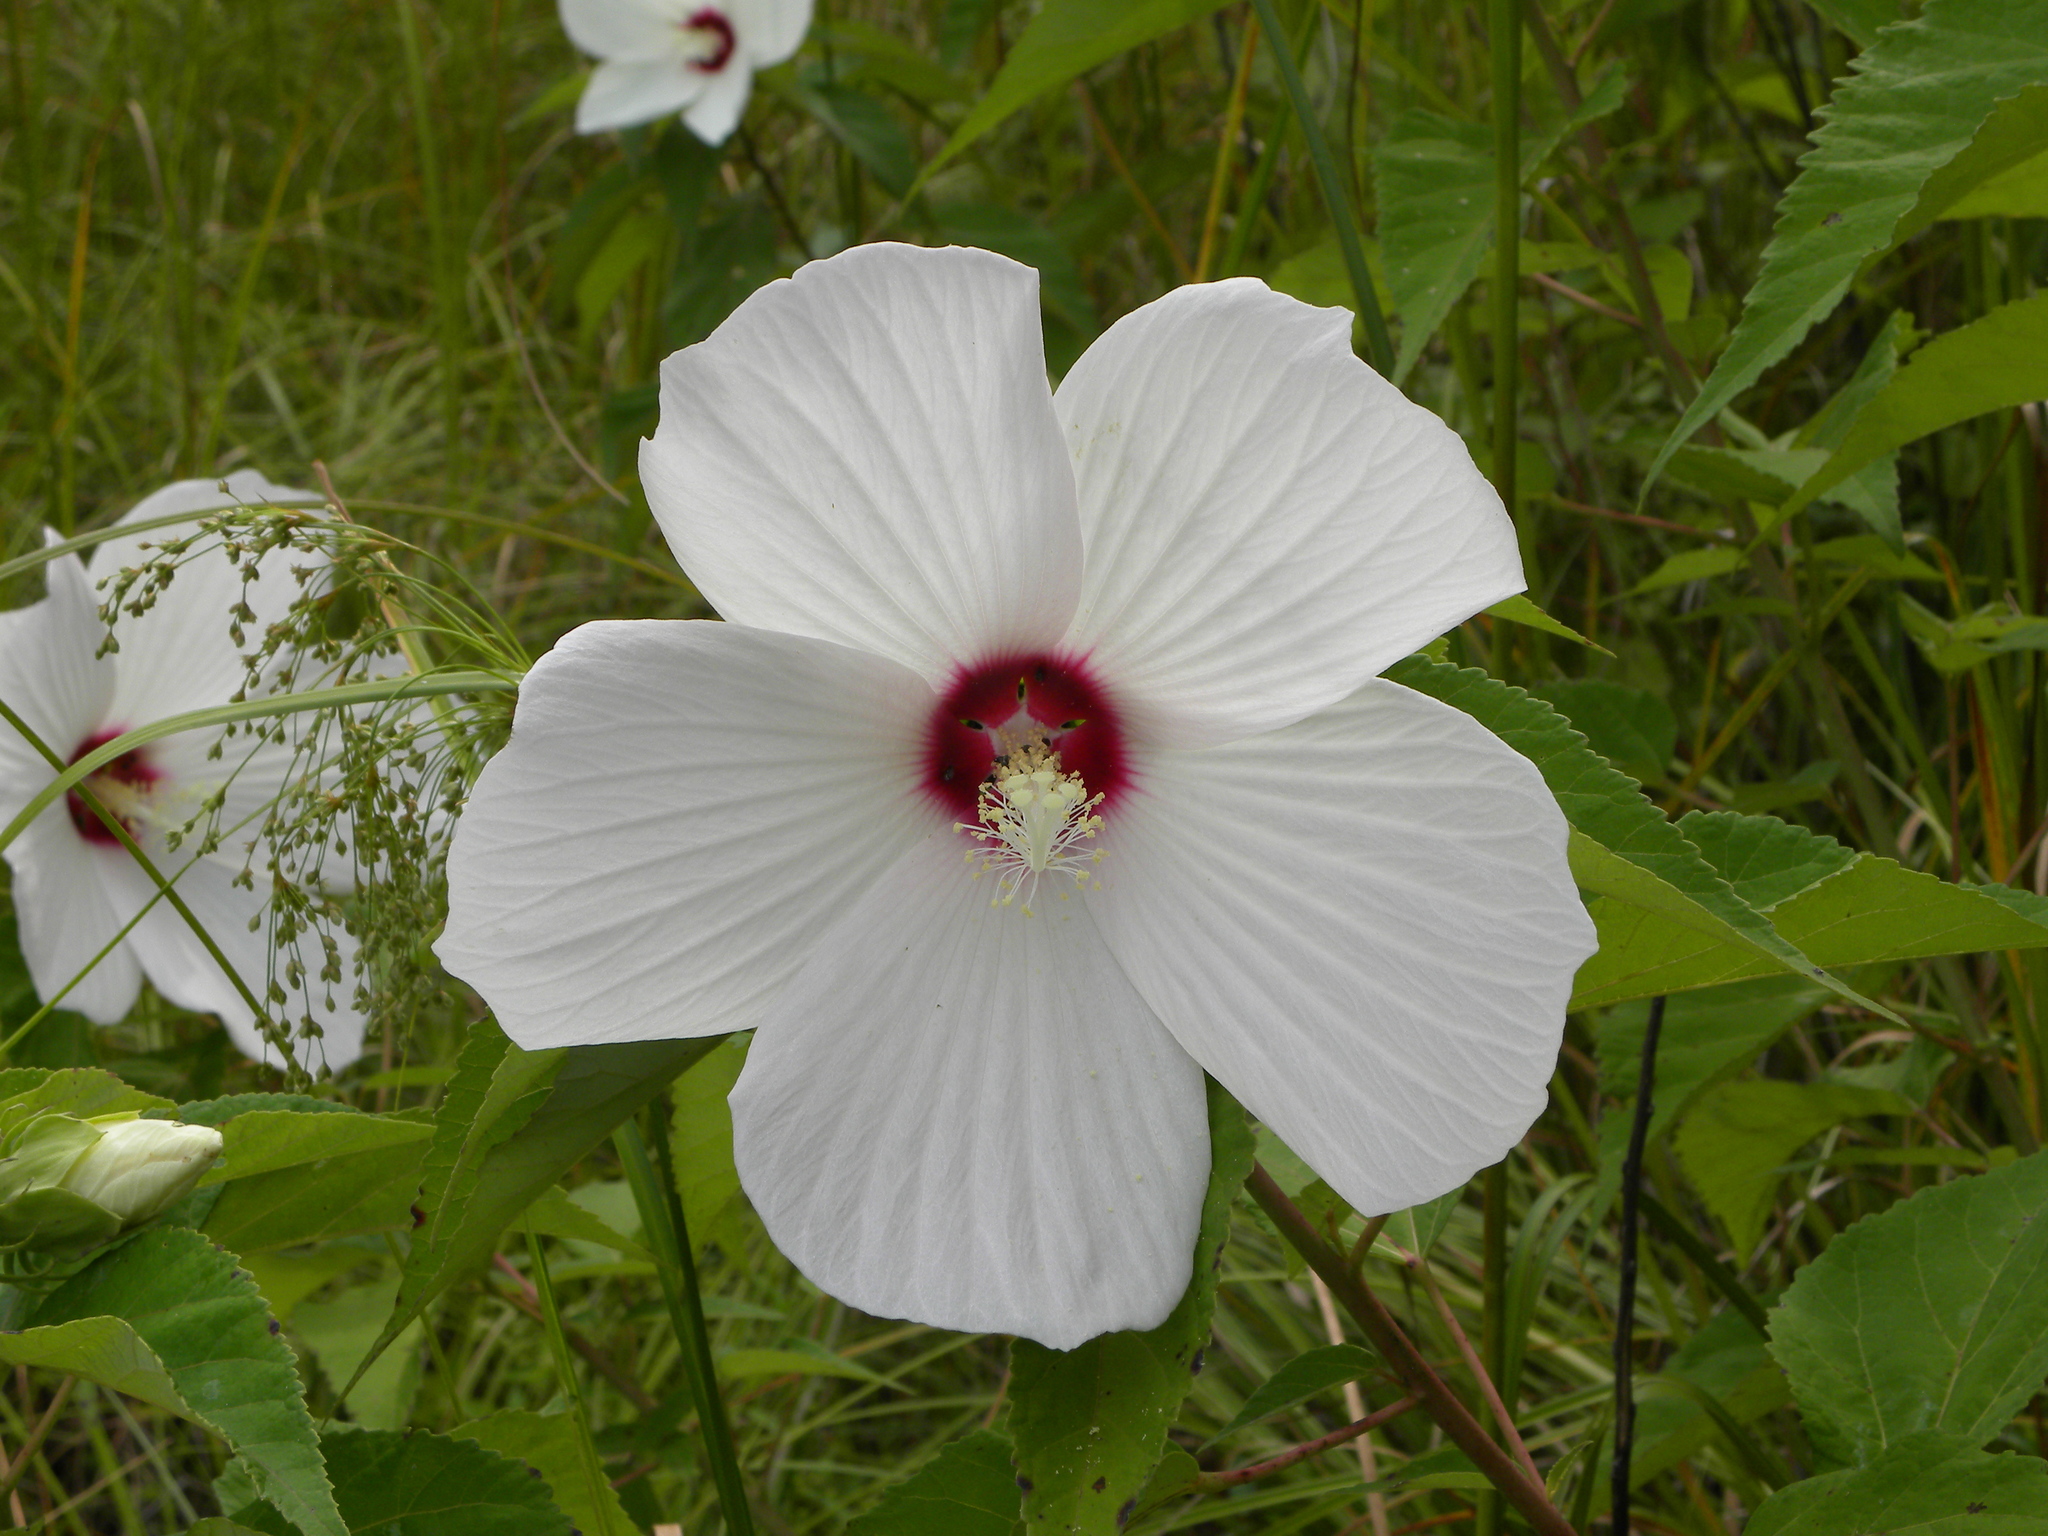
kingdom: Plantae
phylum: Tracheophyta
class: Magnoliopsida
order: Malvales
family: Malvaceae
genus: Hibiscus
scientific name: Hibiscus moscheutos
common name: Common rose-mallow
